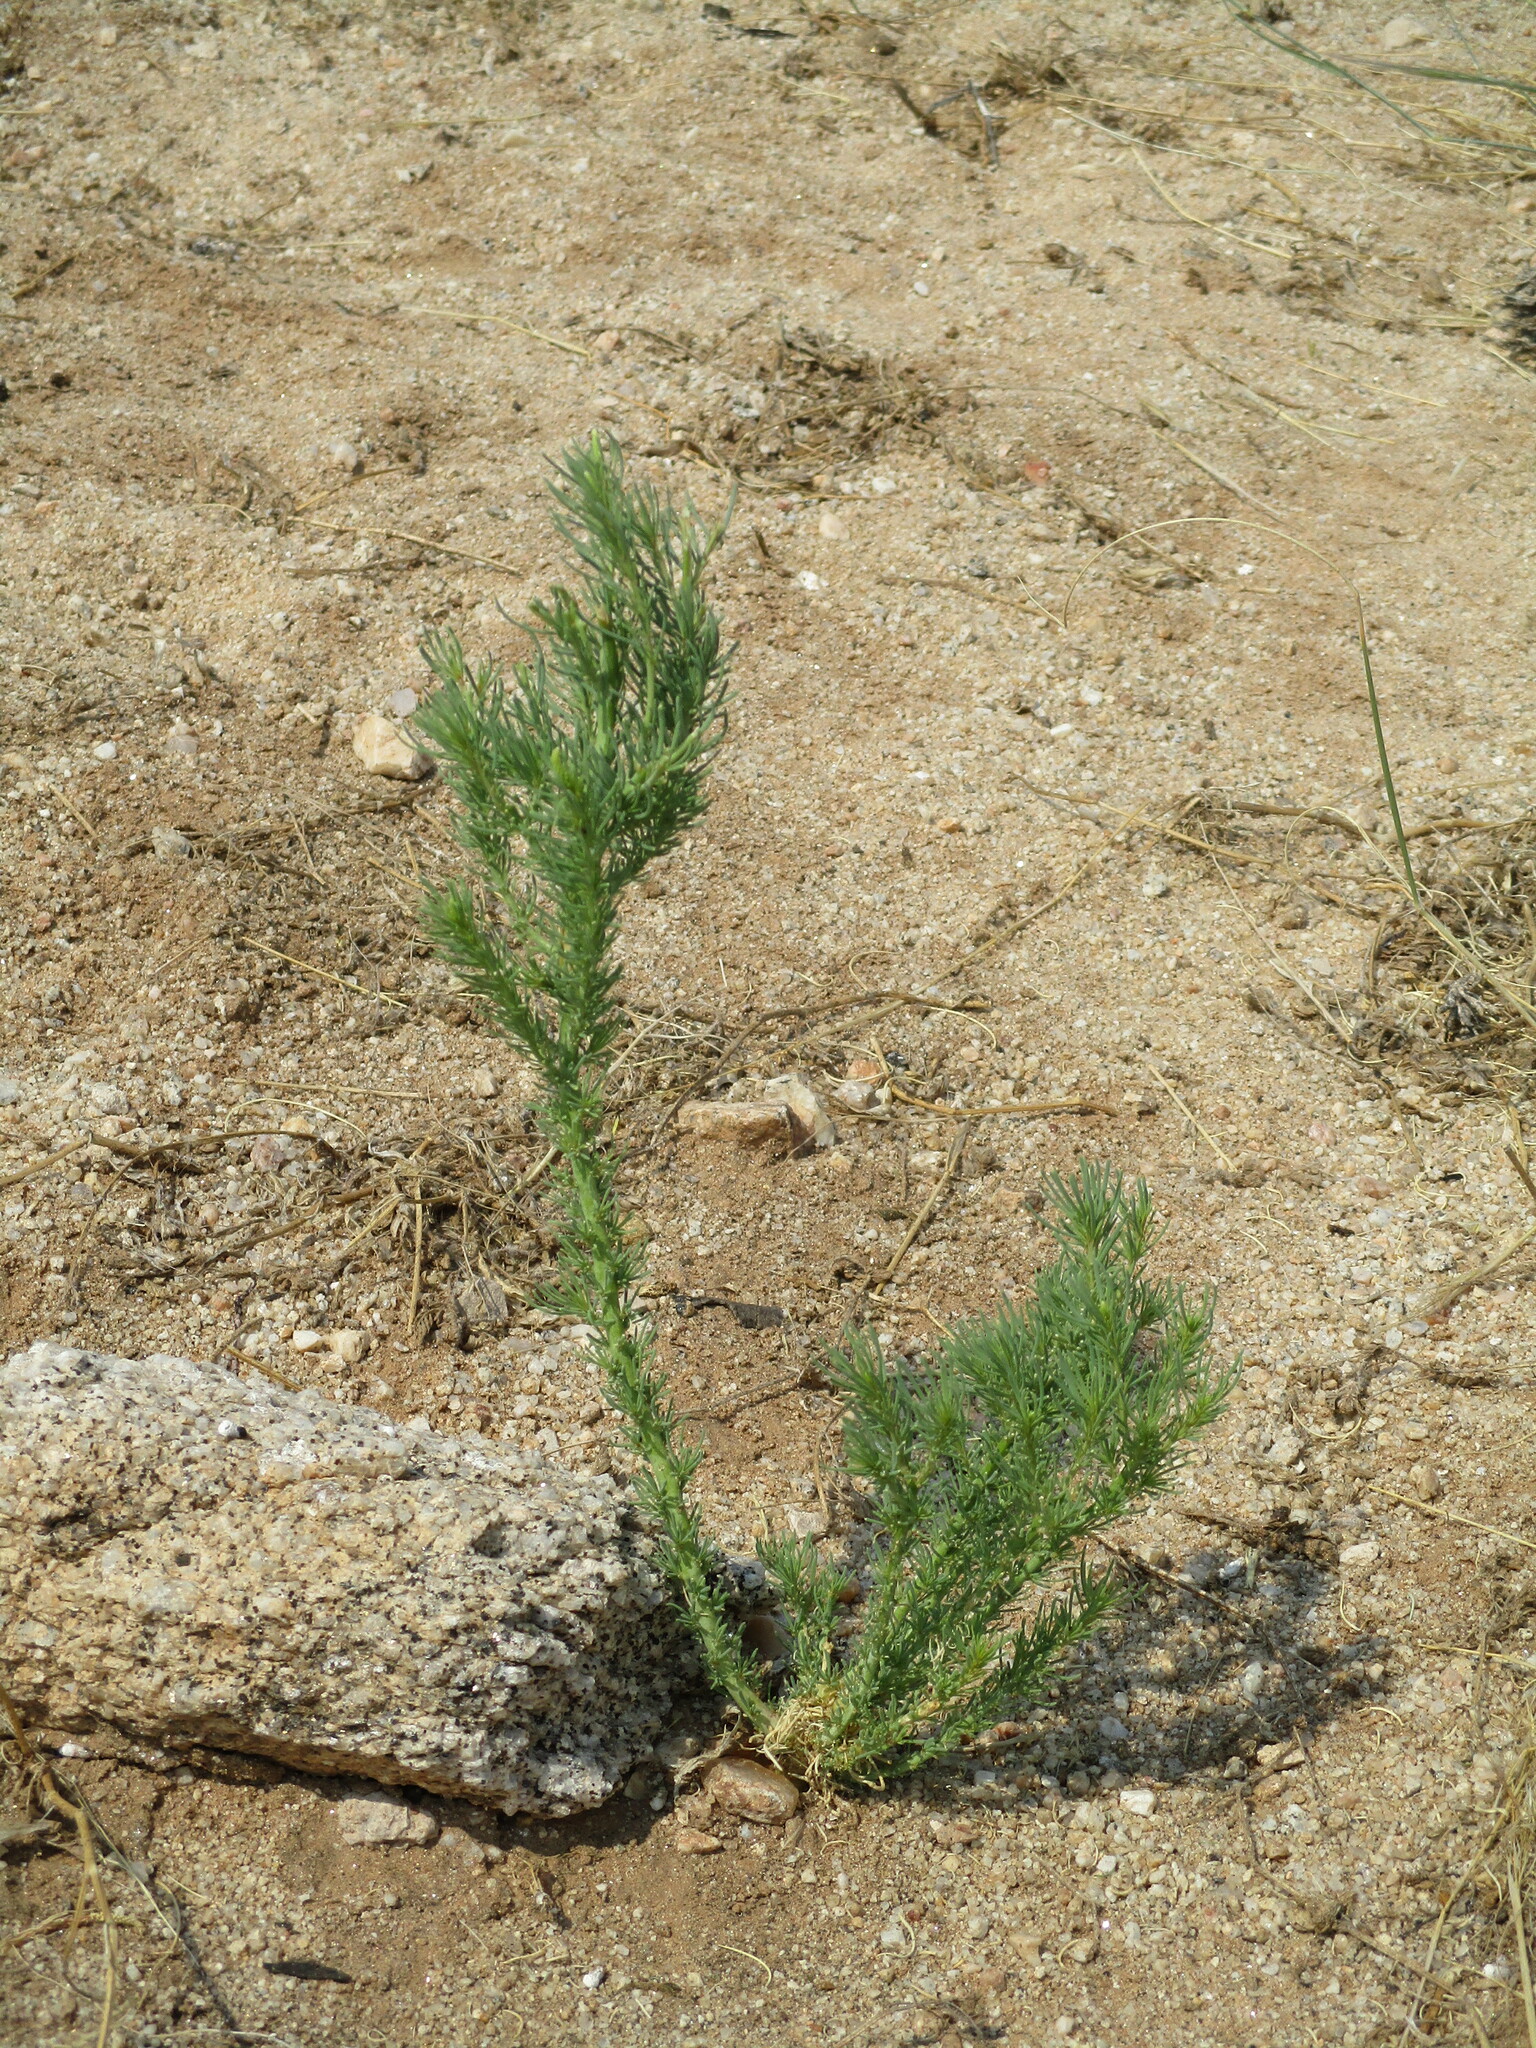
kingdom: Plantae
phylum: Tracheophyta
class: Magnoliopsida
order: Caryophyllales
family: Lophiocarpaceae
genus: Lophiocarpus
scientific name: Lophiocarpus polystachyus
